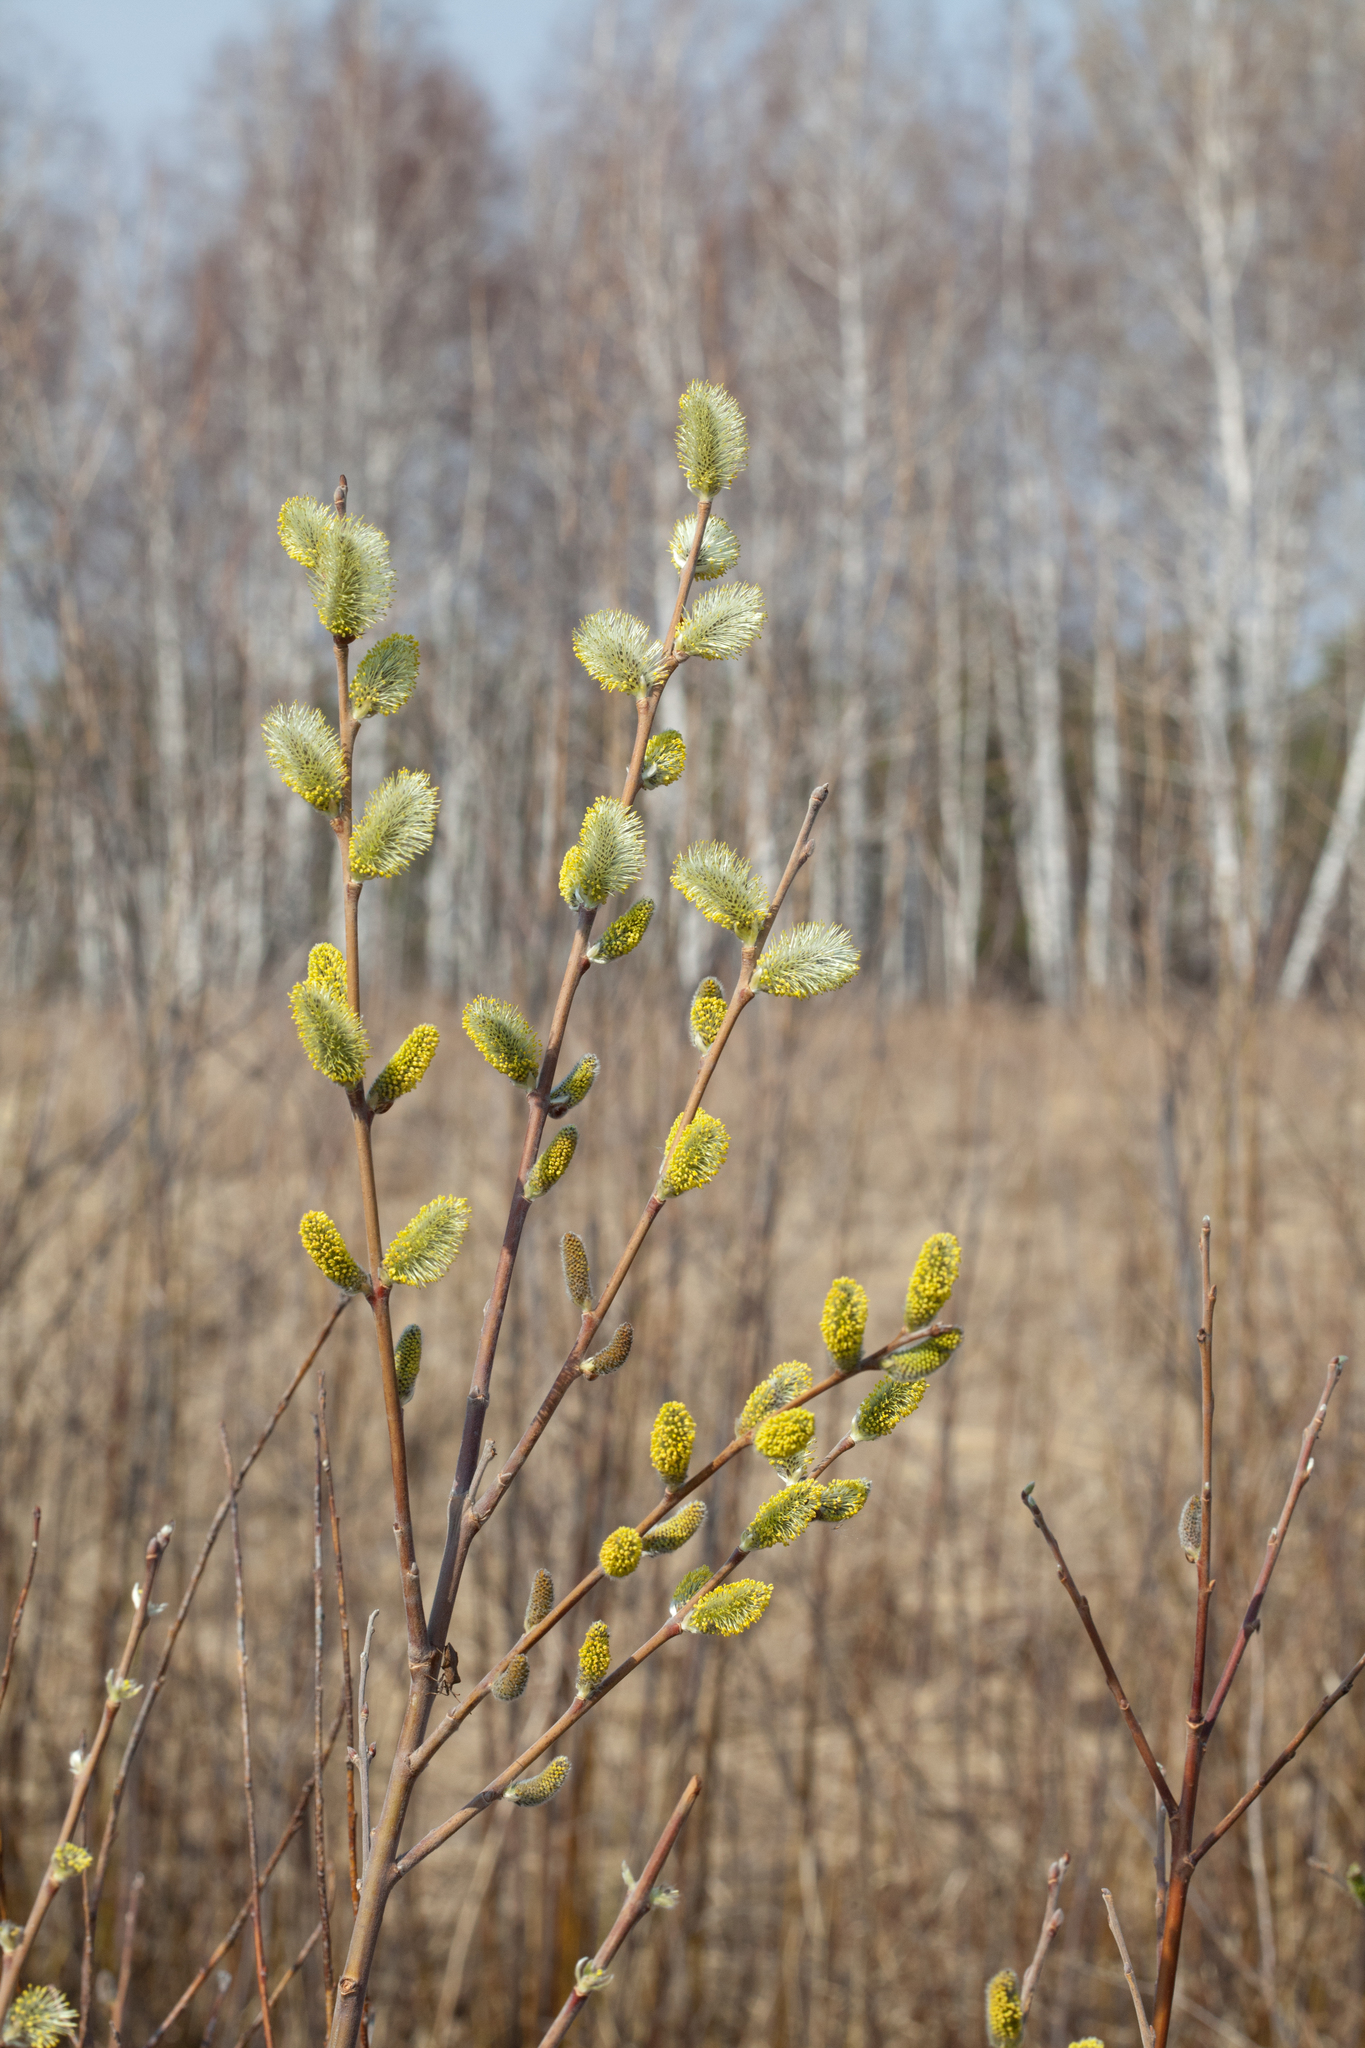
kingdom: Plantae
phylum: Tracheophyta
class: Magnoliopsida
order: Malpighiales
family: Salicaceae
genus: Salix
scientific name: Salix caprea
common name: Goat willow
